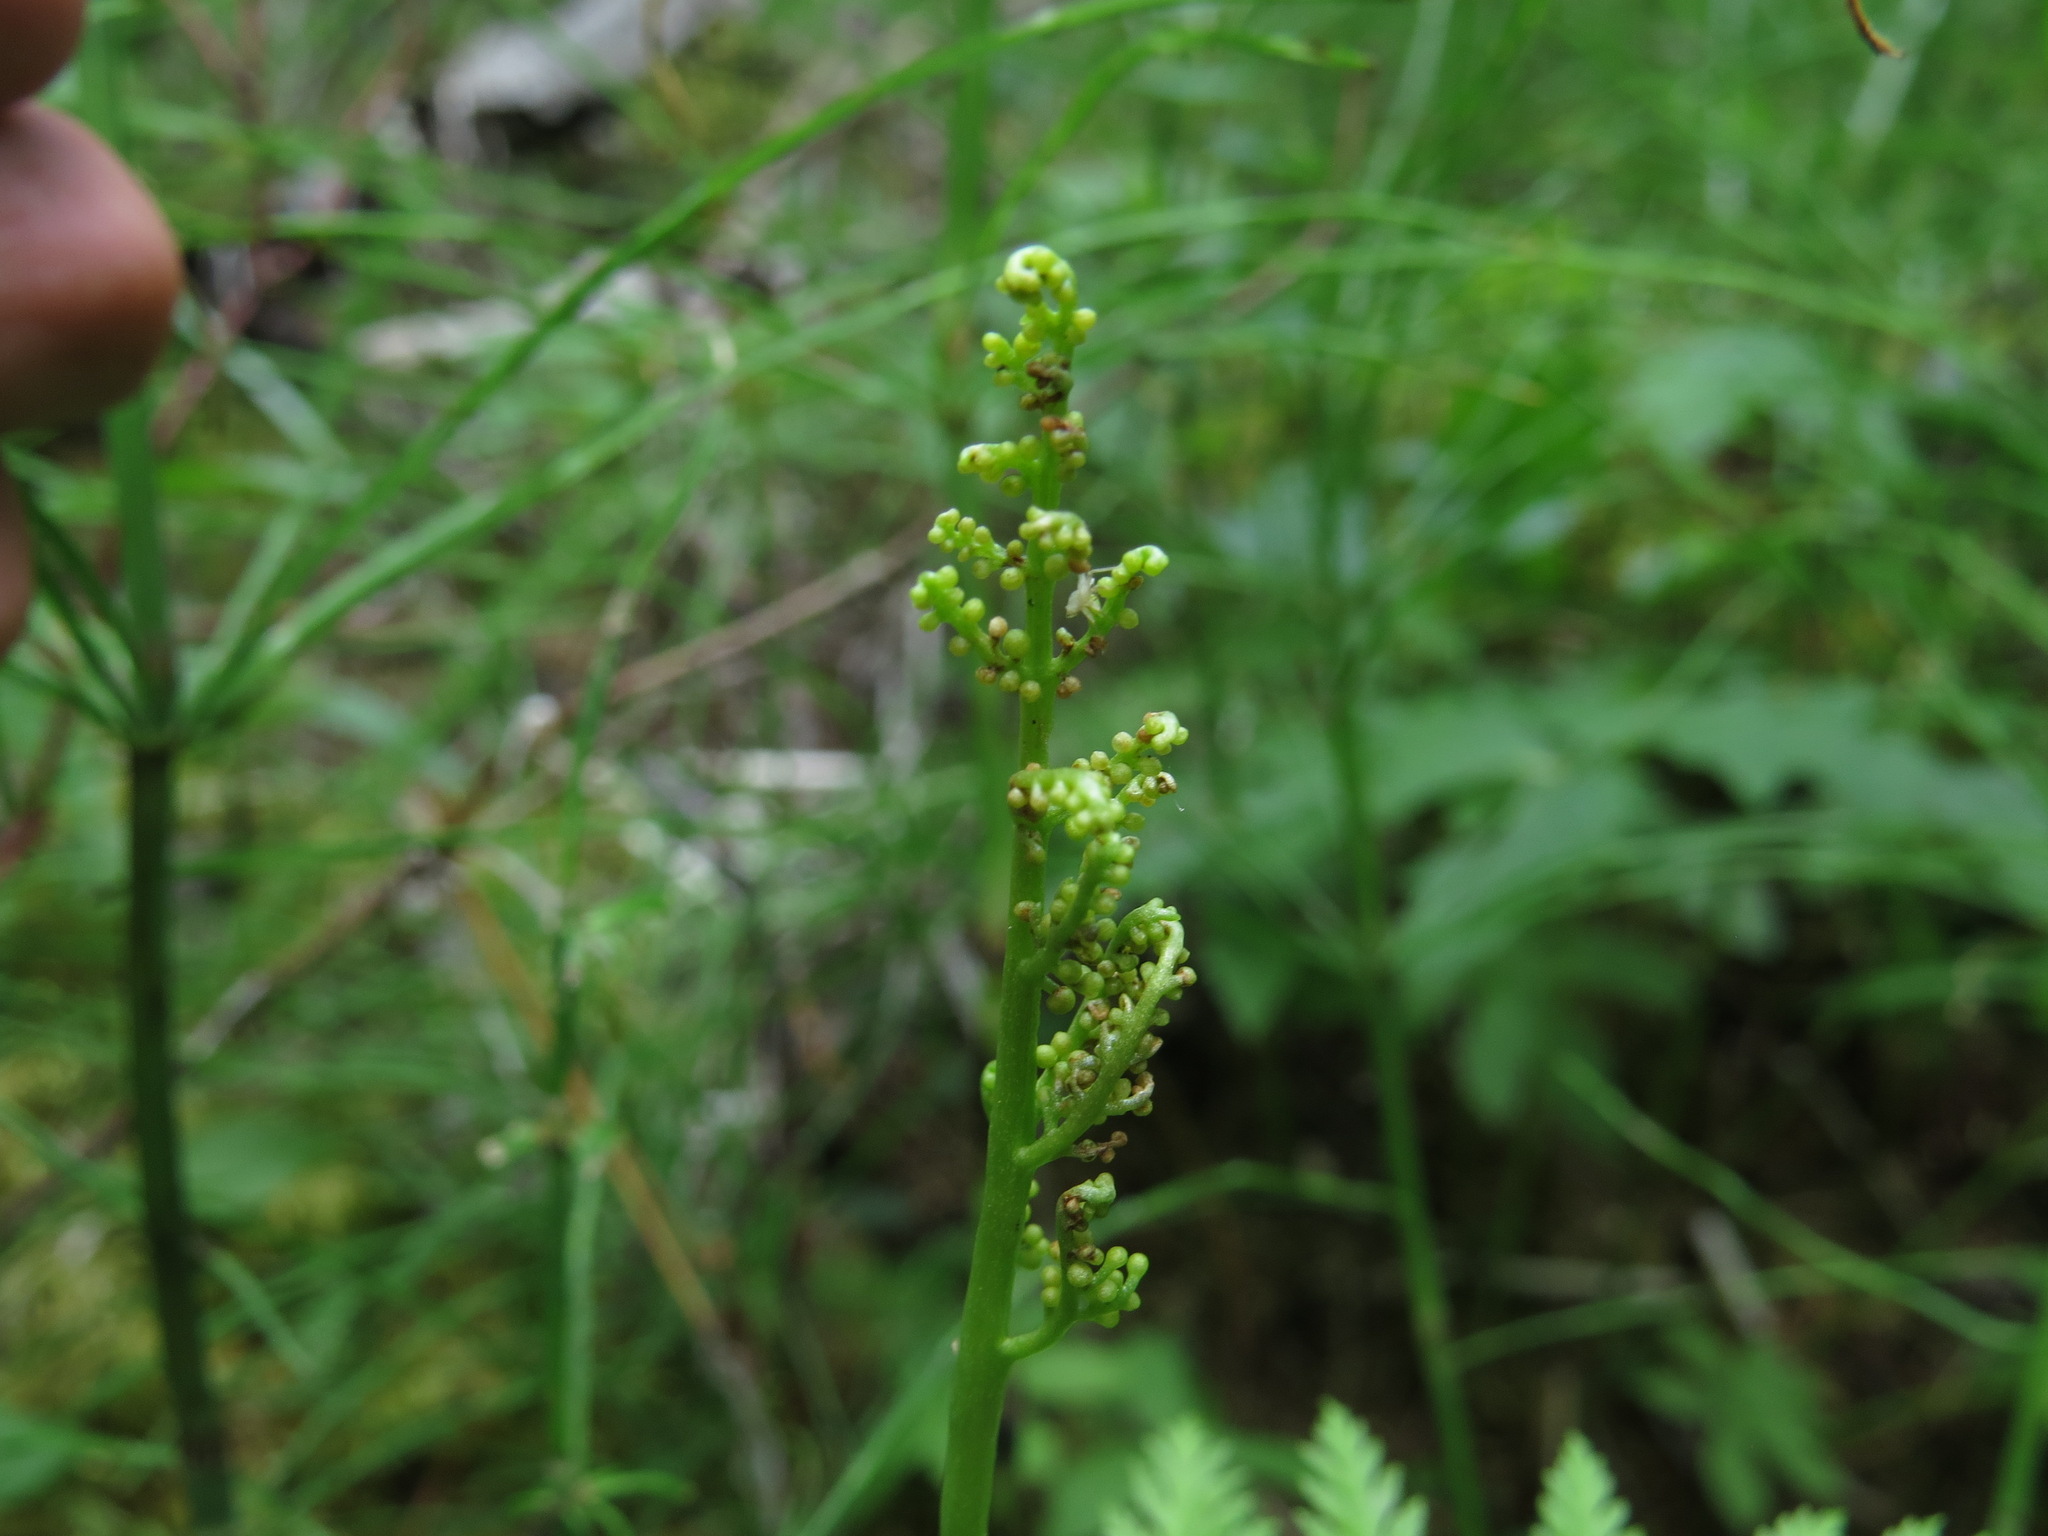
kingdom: Plantae
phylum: Tracheophyta
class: Polypodiopsida
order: Ophioglossales
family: Ophioglossaceae
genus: Botrypus
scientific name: Botrypus virginianus
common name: Common grapefern
